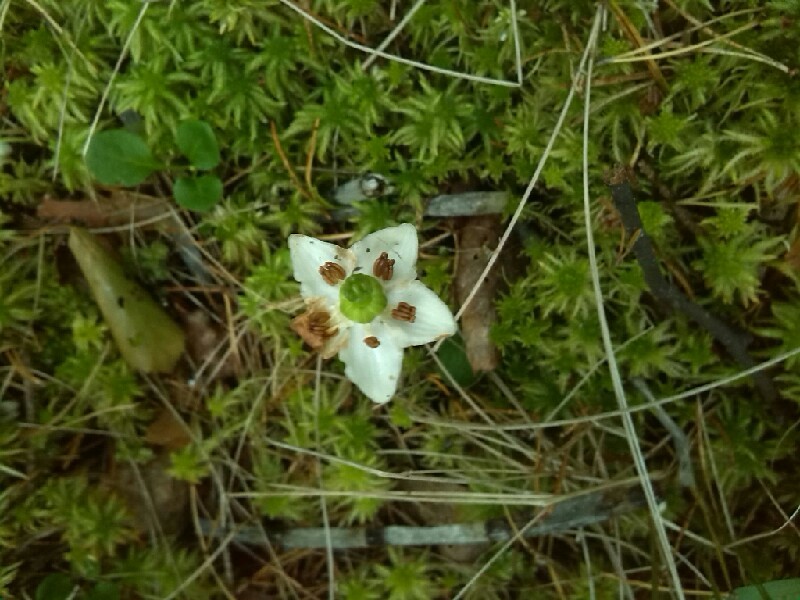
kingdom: Plantae
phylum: Tracheophyta
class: Magnoliopsida
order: Ericales
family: Ericaceae
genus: Moneses
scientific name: Moneses uniflora
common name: One-flowered wintergreen
